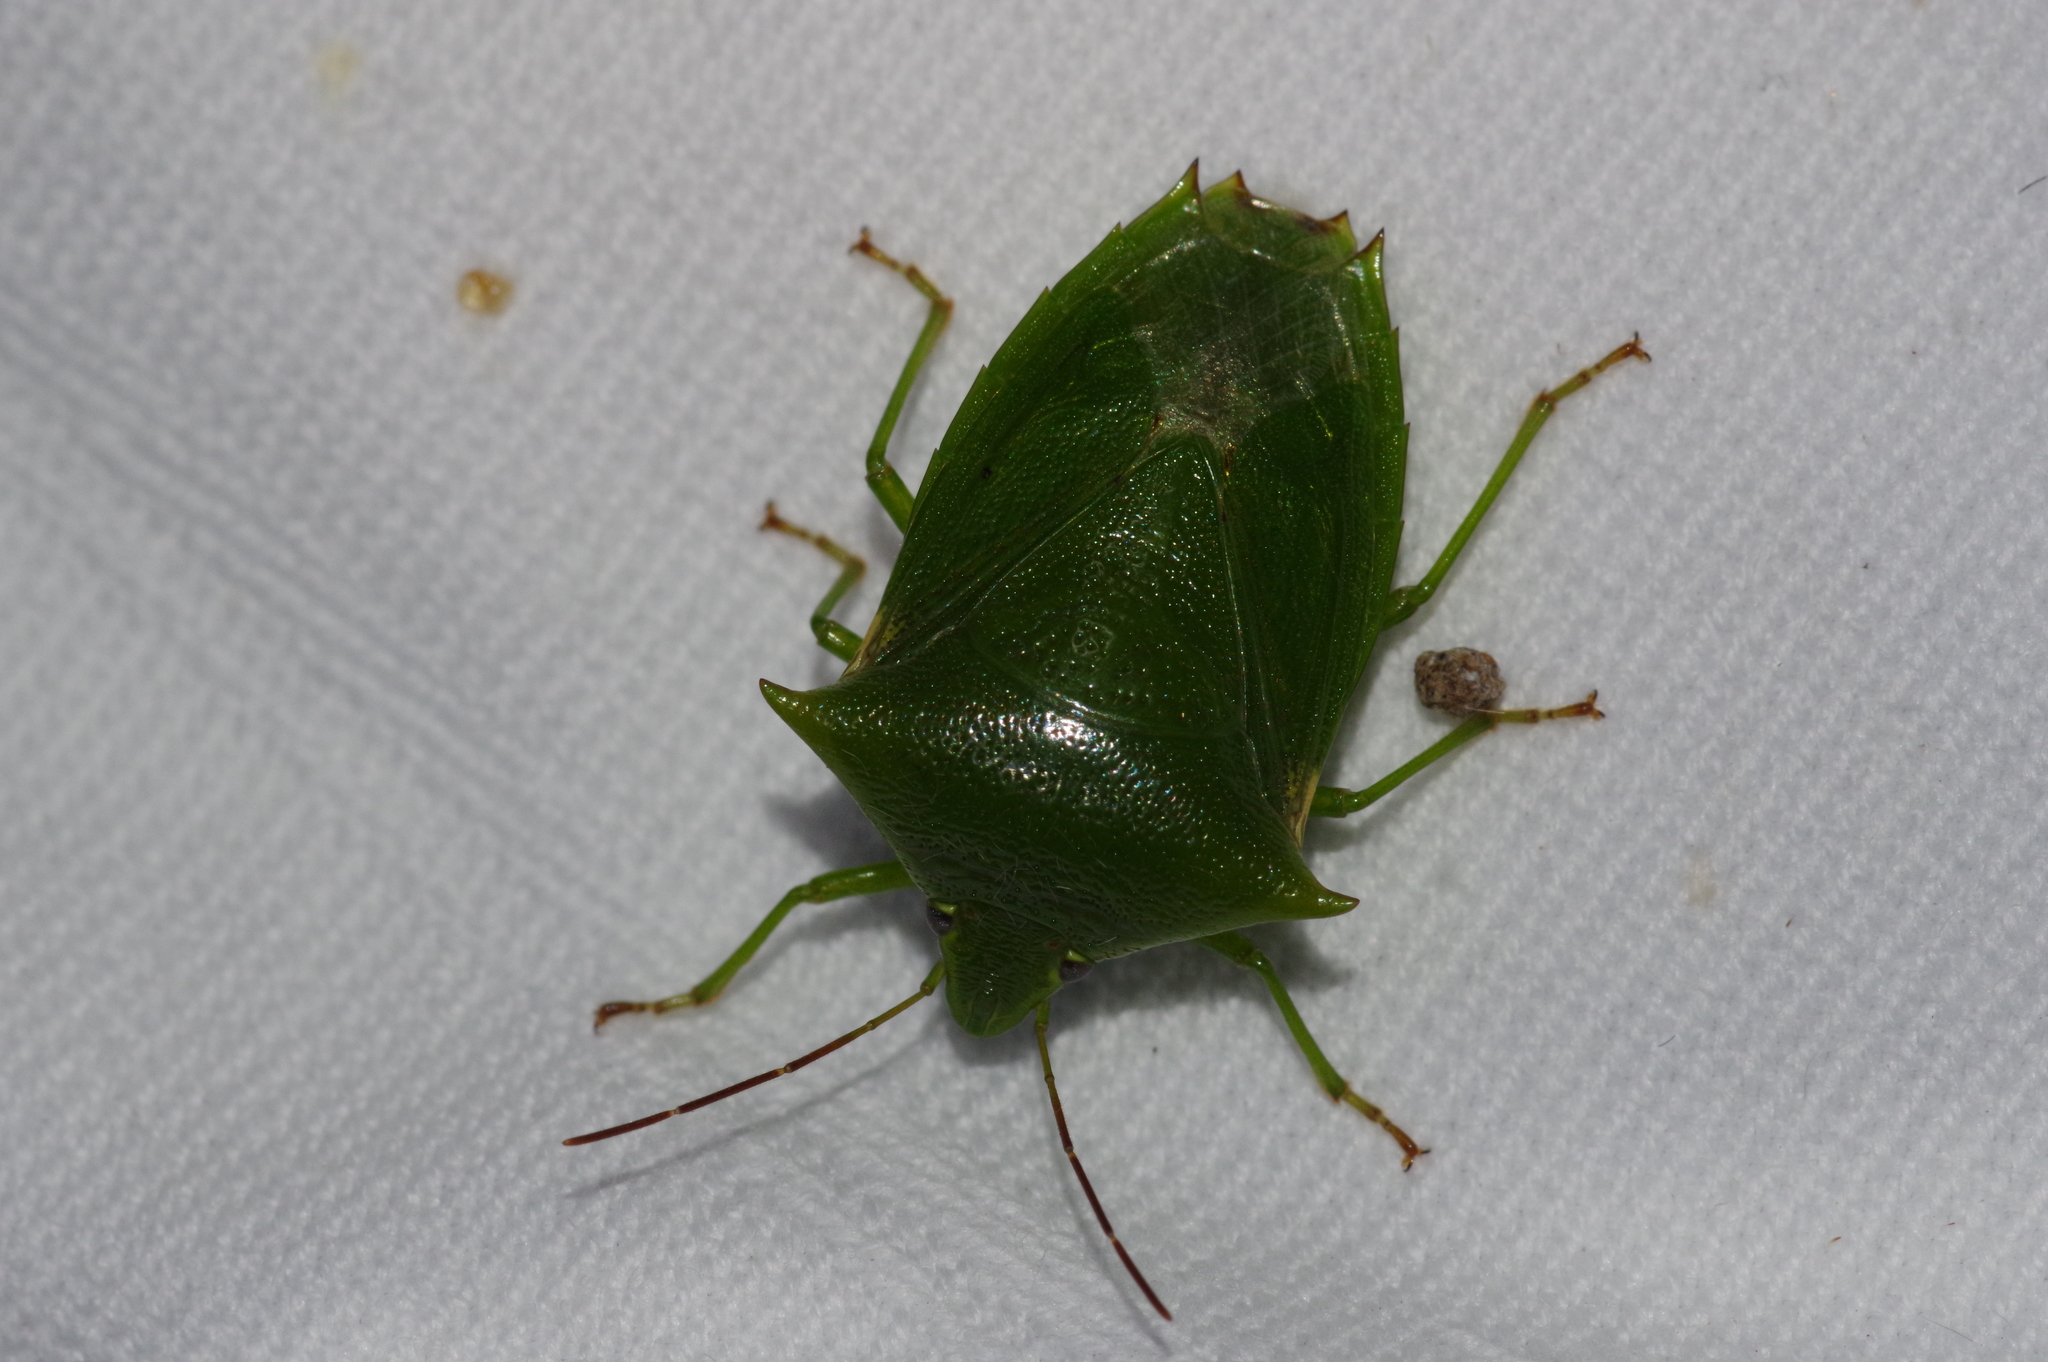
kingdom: Animalia
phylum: Arthropoda
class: Insecta
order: Hemiptera
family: Pentatomidae
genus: Vitellus
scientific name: Vitellus
